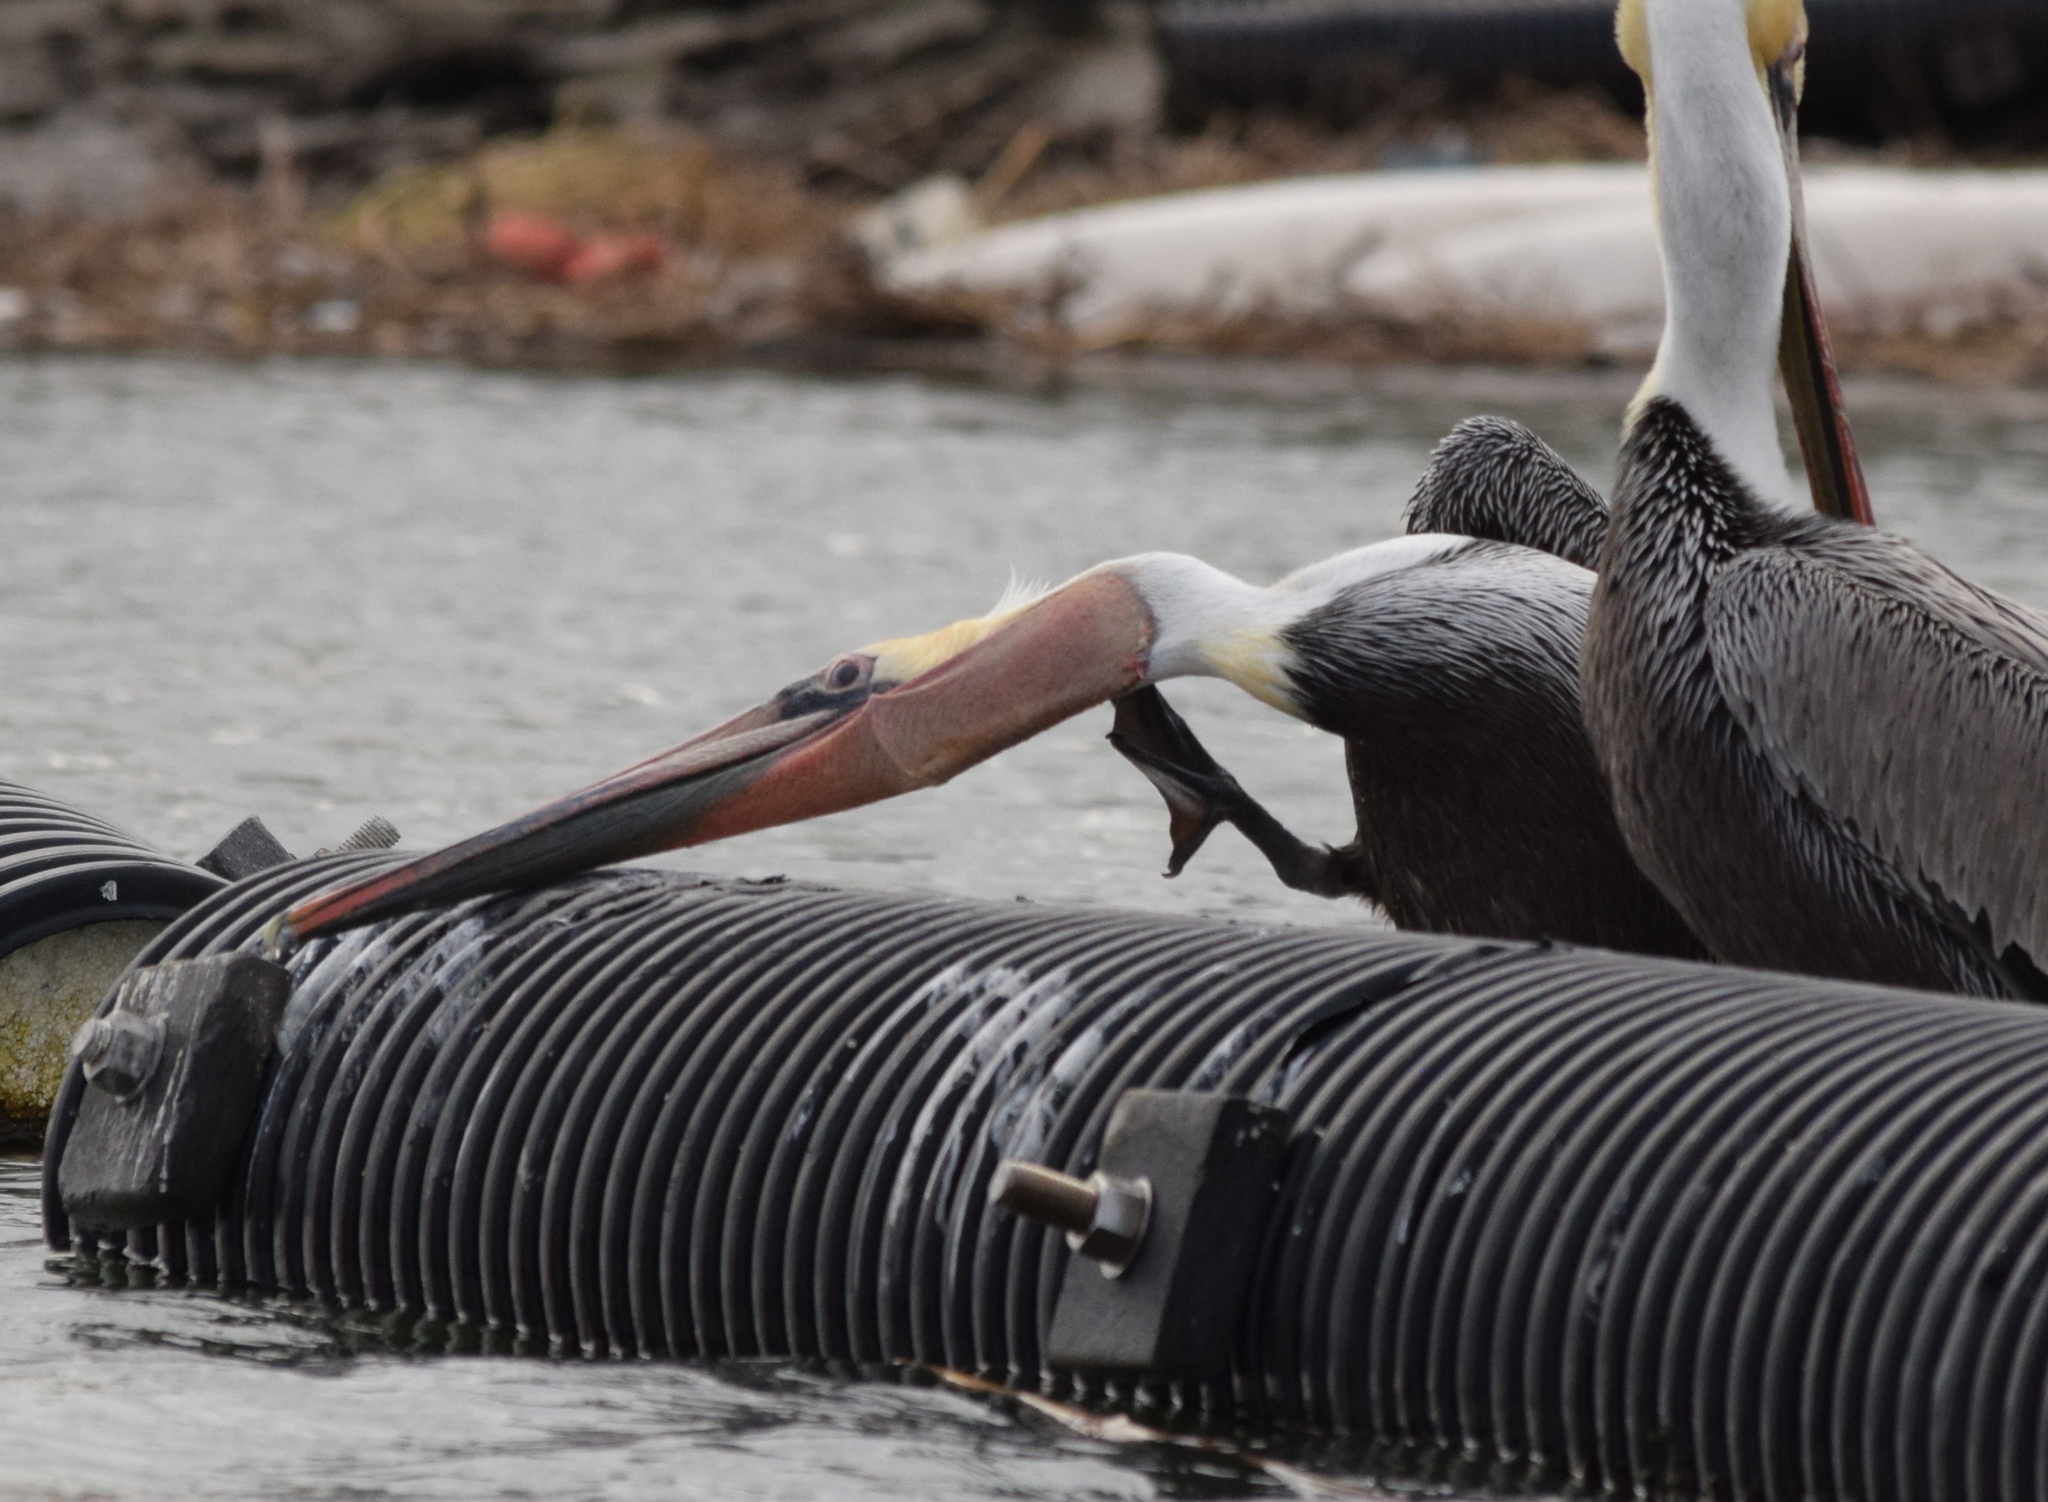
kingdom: Animalia
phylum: Chordata
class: Aves
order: Pelecaniformes
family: Pelecanidae
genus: Pelecanus
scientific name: Pelecanus occidentalis
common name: Brown pelican
